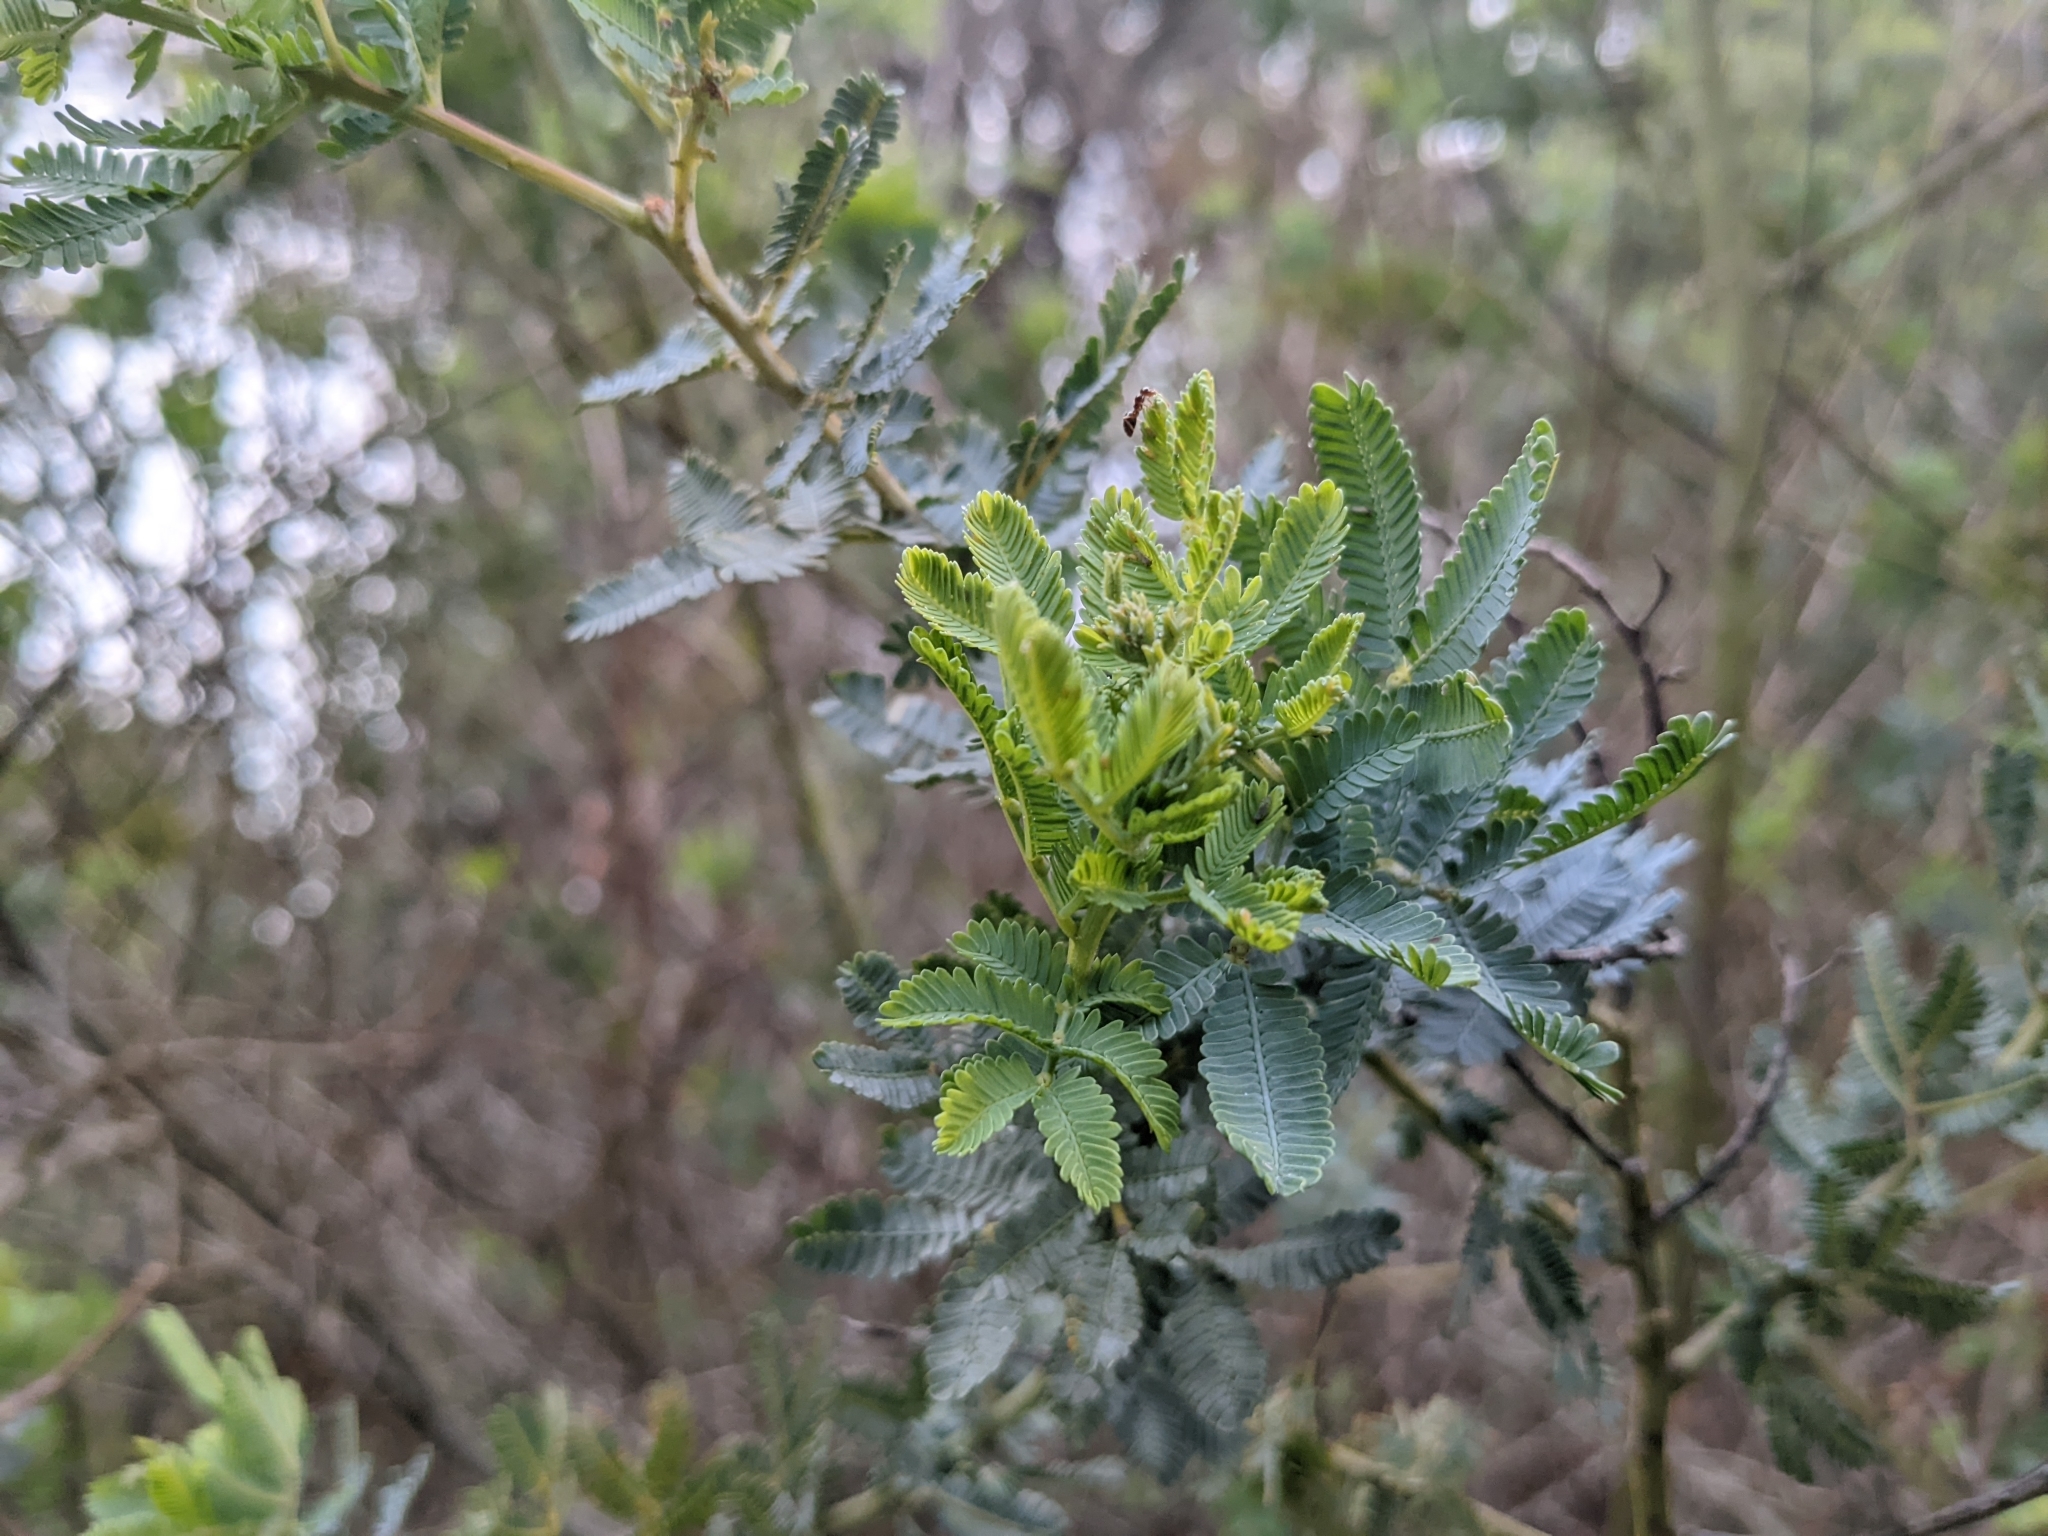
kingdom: Plantae
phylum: Tracheophyta
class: Magnoliopsida
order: Fabales
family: Fabaceae
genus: Acacia
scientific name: Acacia baileyana
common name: Cootamundra wattle
